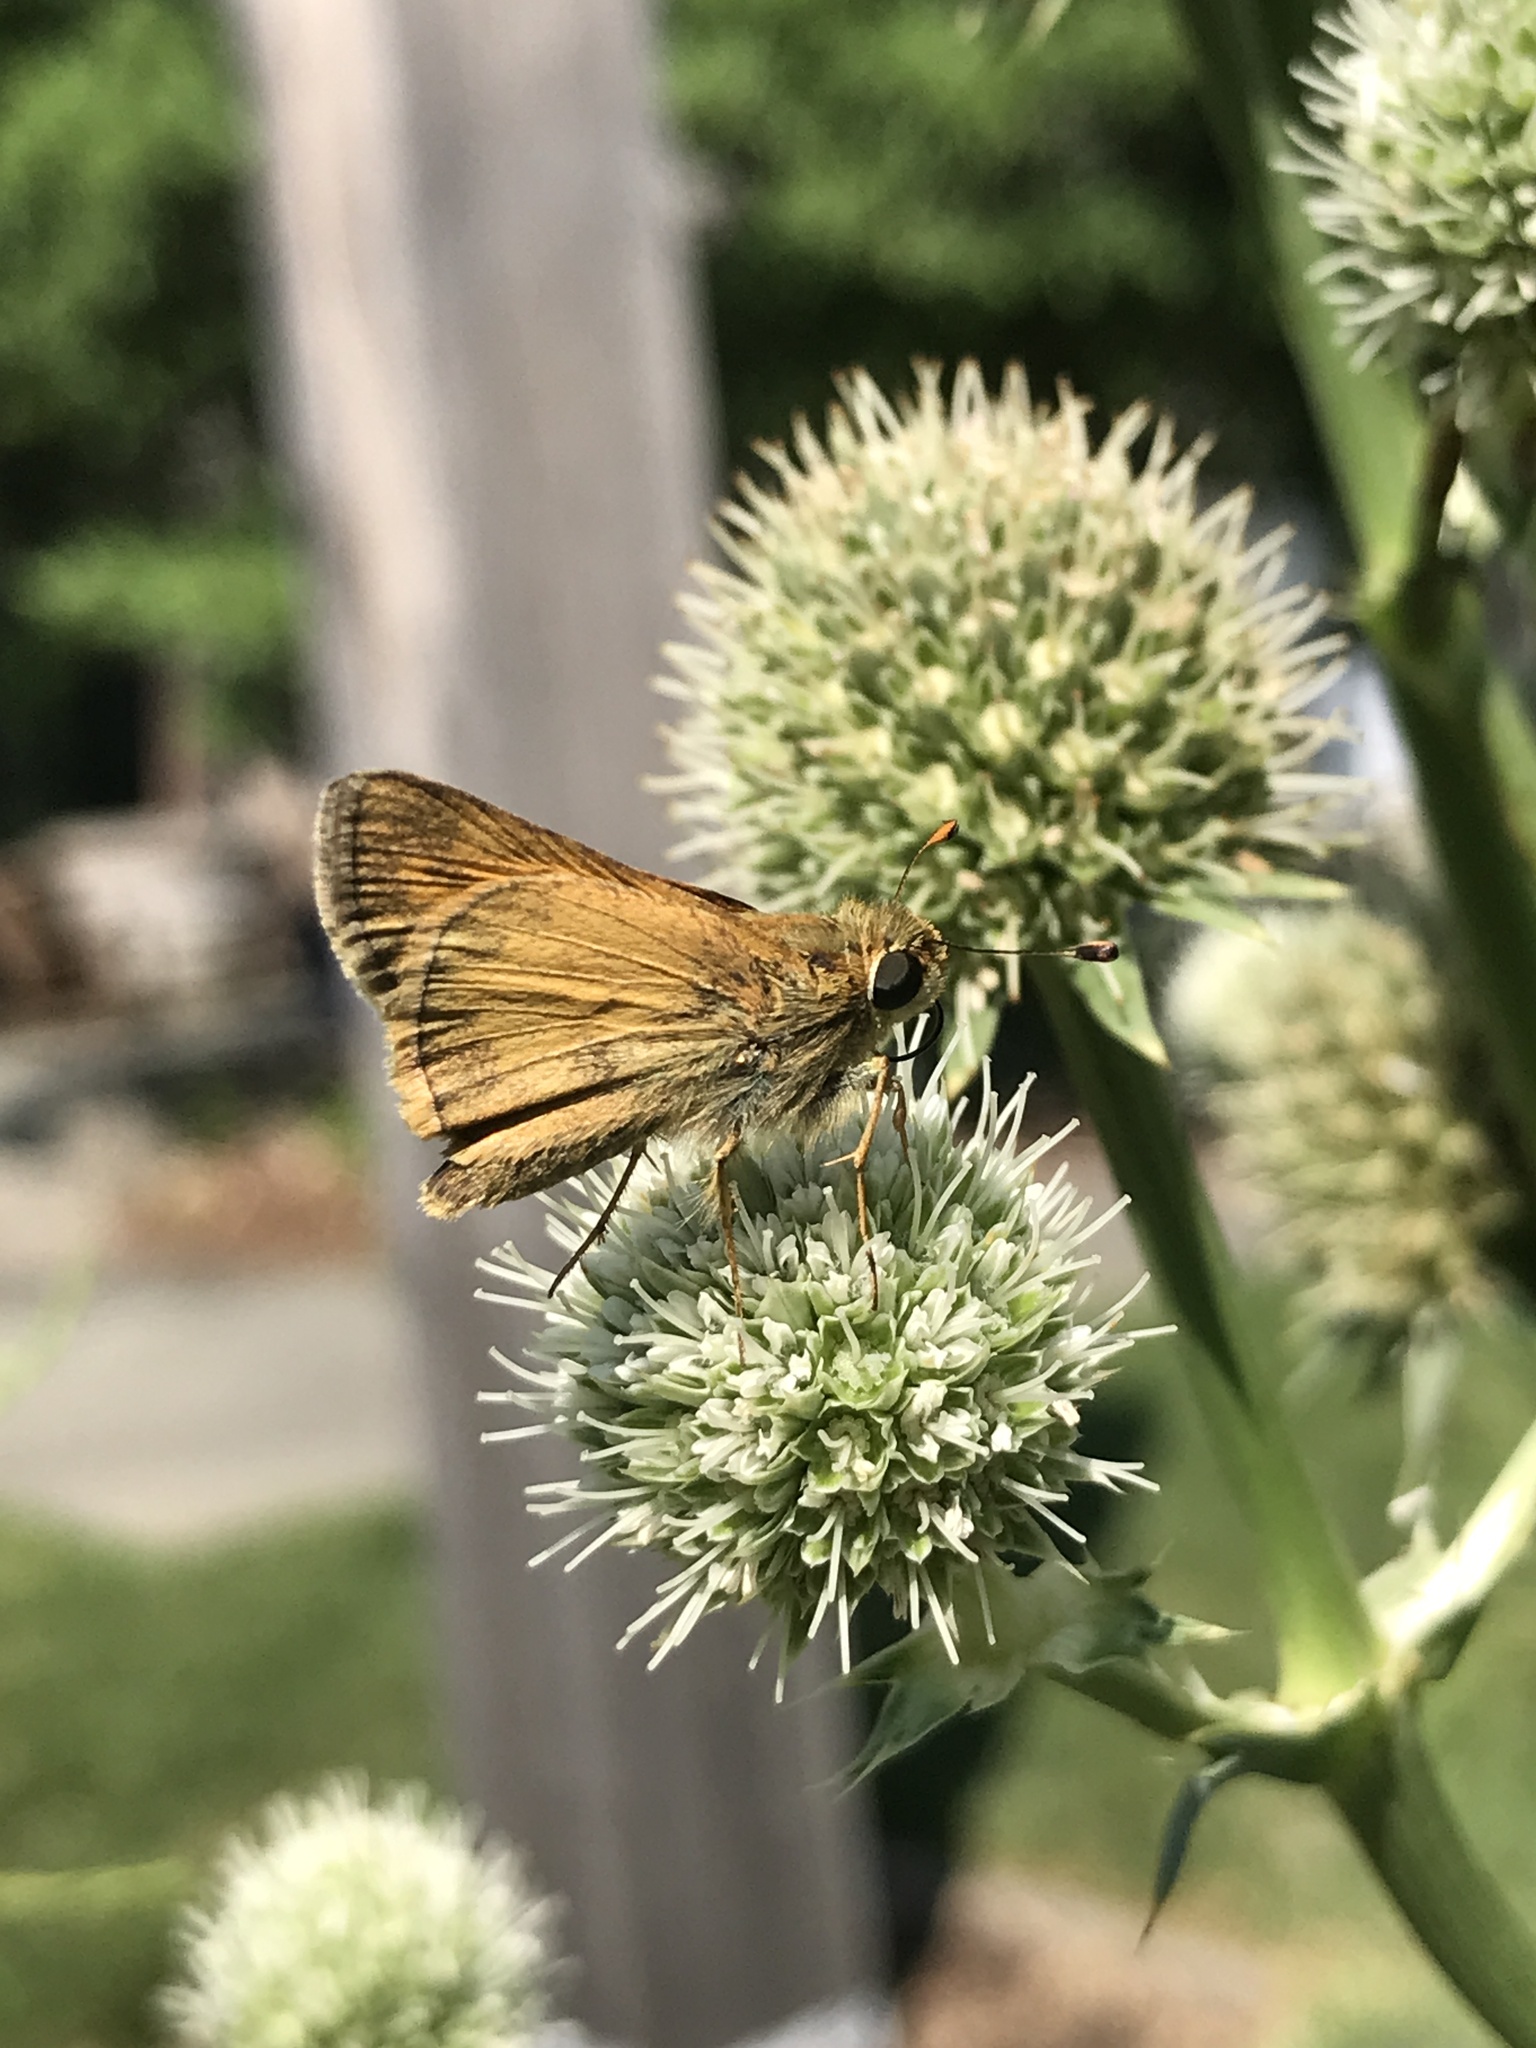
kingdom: Animalia
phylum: Arthropoda
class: Insecta
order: Lepidoptera
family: Hesperiidae
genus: Atalopedes
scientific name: Atalopedes
